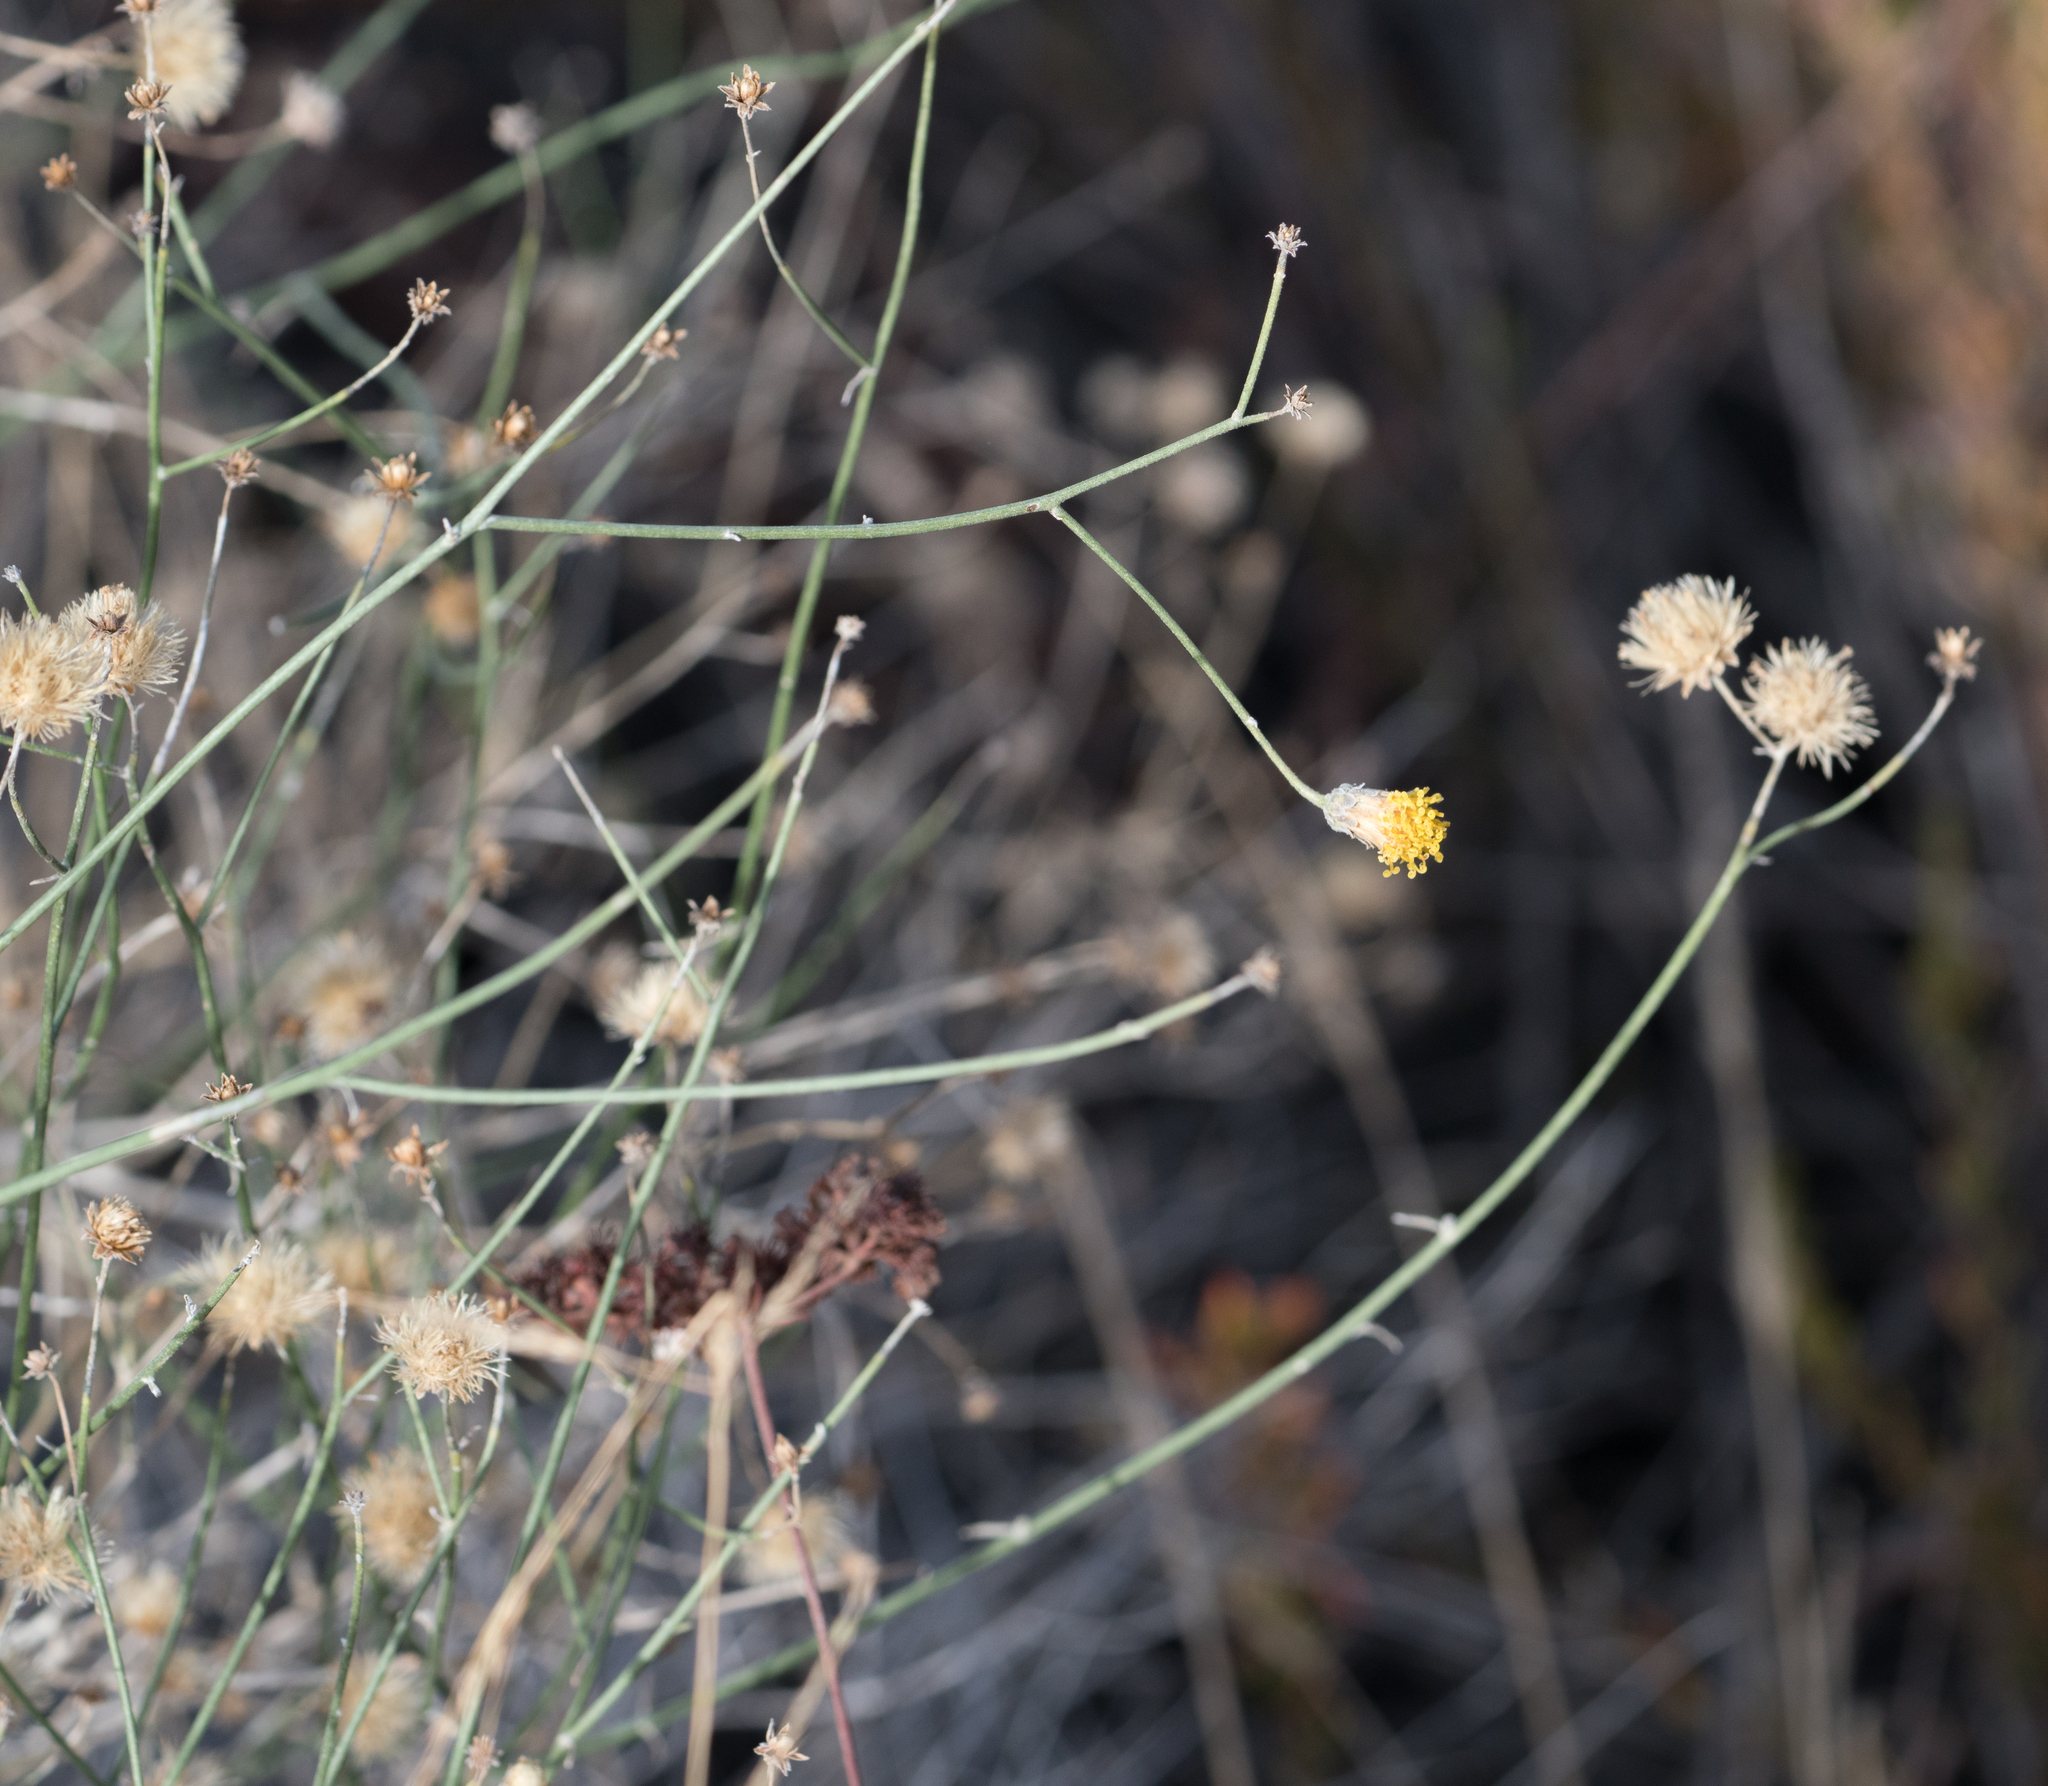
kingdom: Plantae
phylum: Tracheophyta
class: Magnoliopsida
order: Asterales
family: Asteraceae
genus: Bebbia
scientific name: Bebbia juncea
